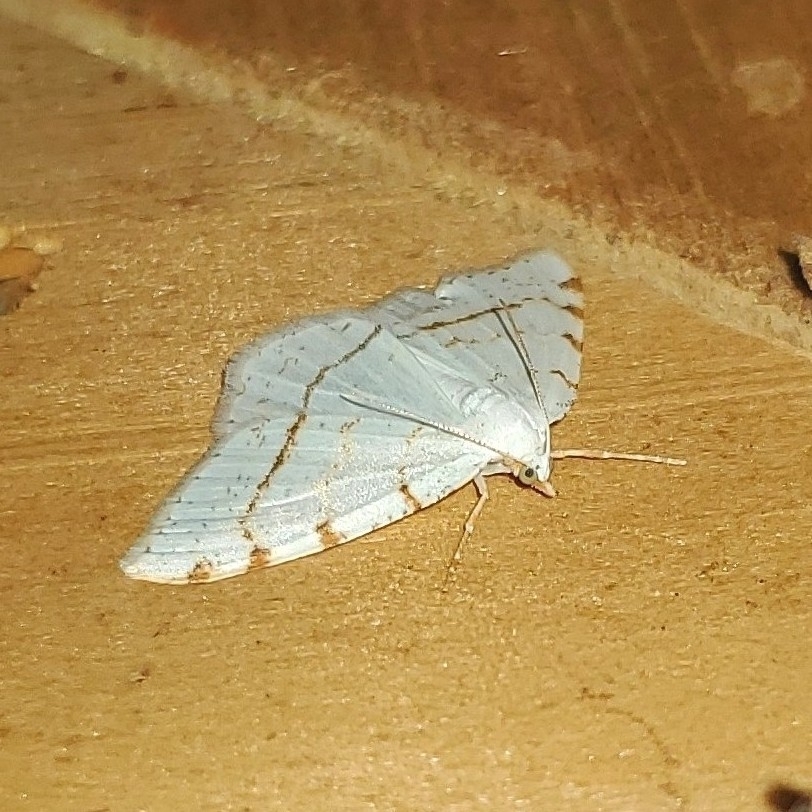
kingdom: Animalia
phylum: Arthropoda
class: Insecta
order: Lepidoptera
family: Geometridae
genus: Macaria
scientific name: Macaria pustularia
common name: Lesser maple spanworm moth
